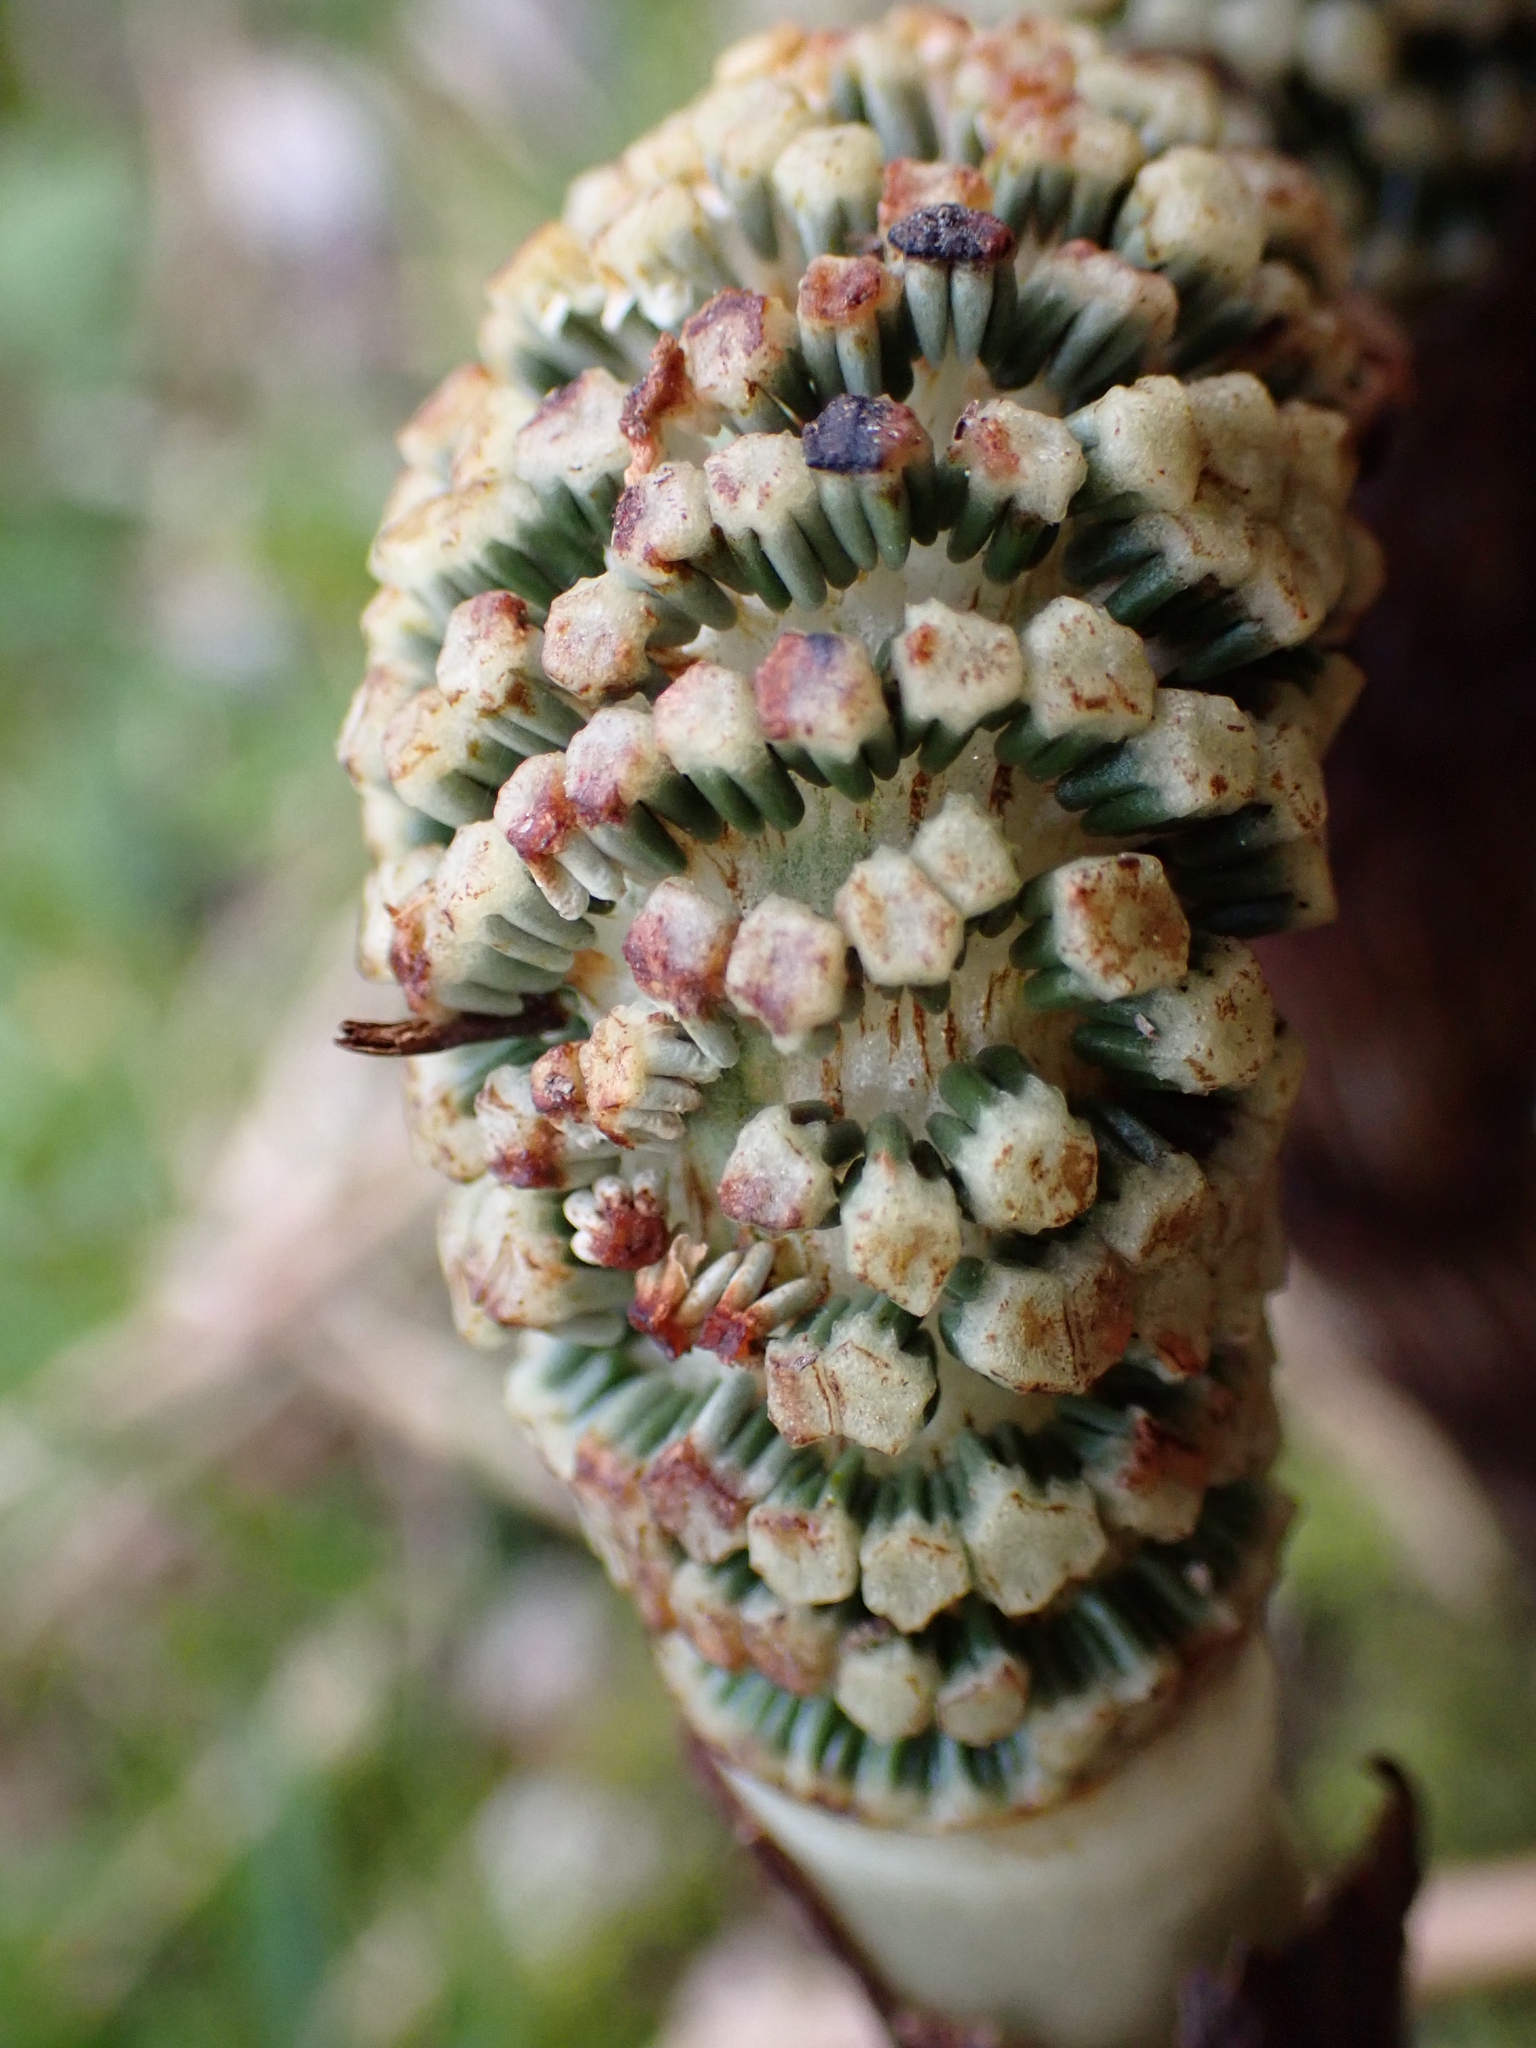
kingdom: Plantae
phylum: Tracheophyta
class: Polypodiopsida
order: Equisetales
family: Equisetaceae
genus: Equisetum
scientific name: Equisetum braunii
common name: Braun's horsetail
